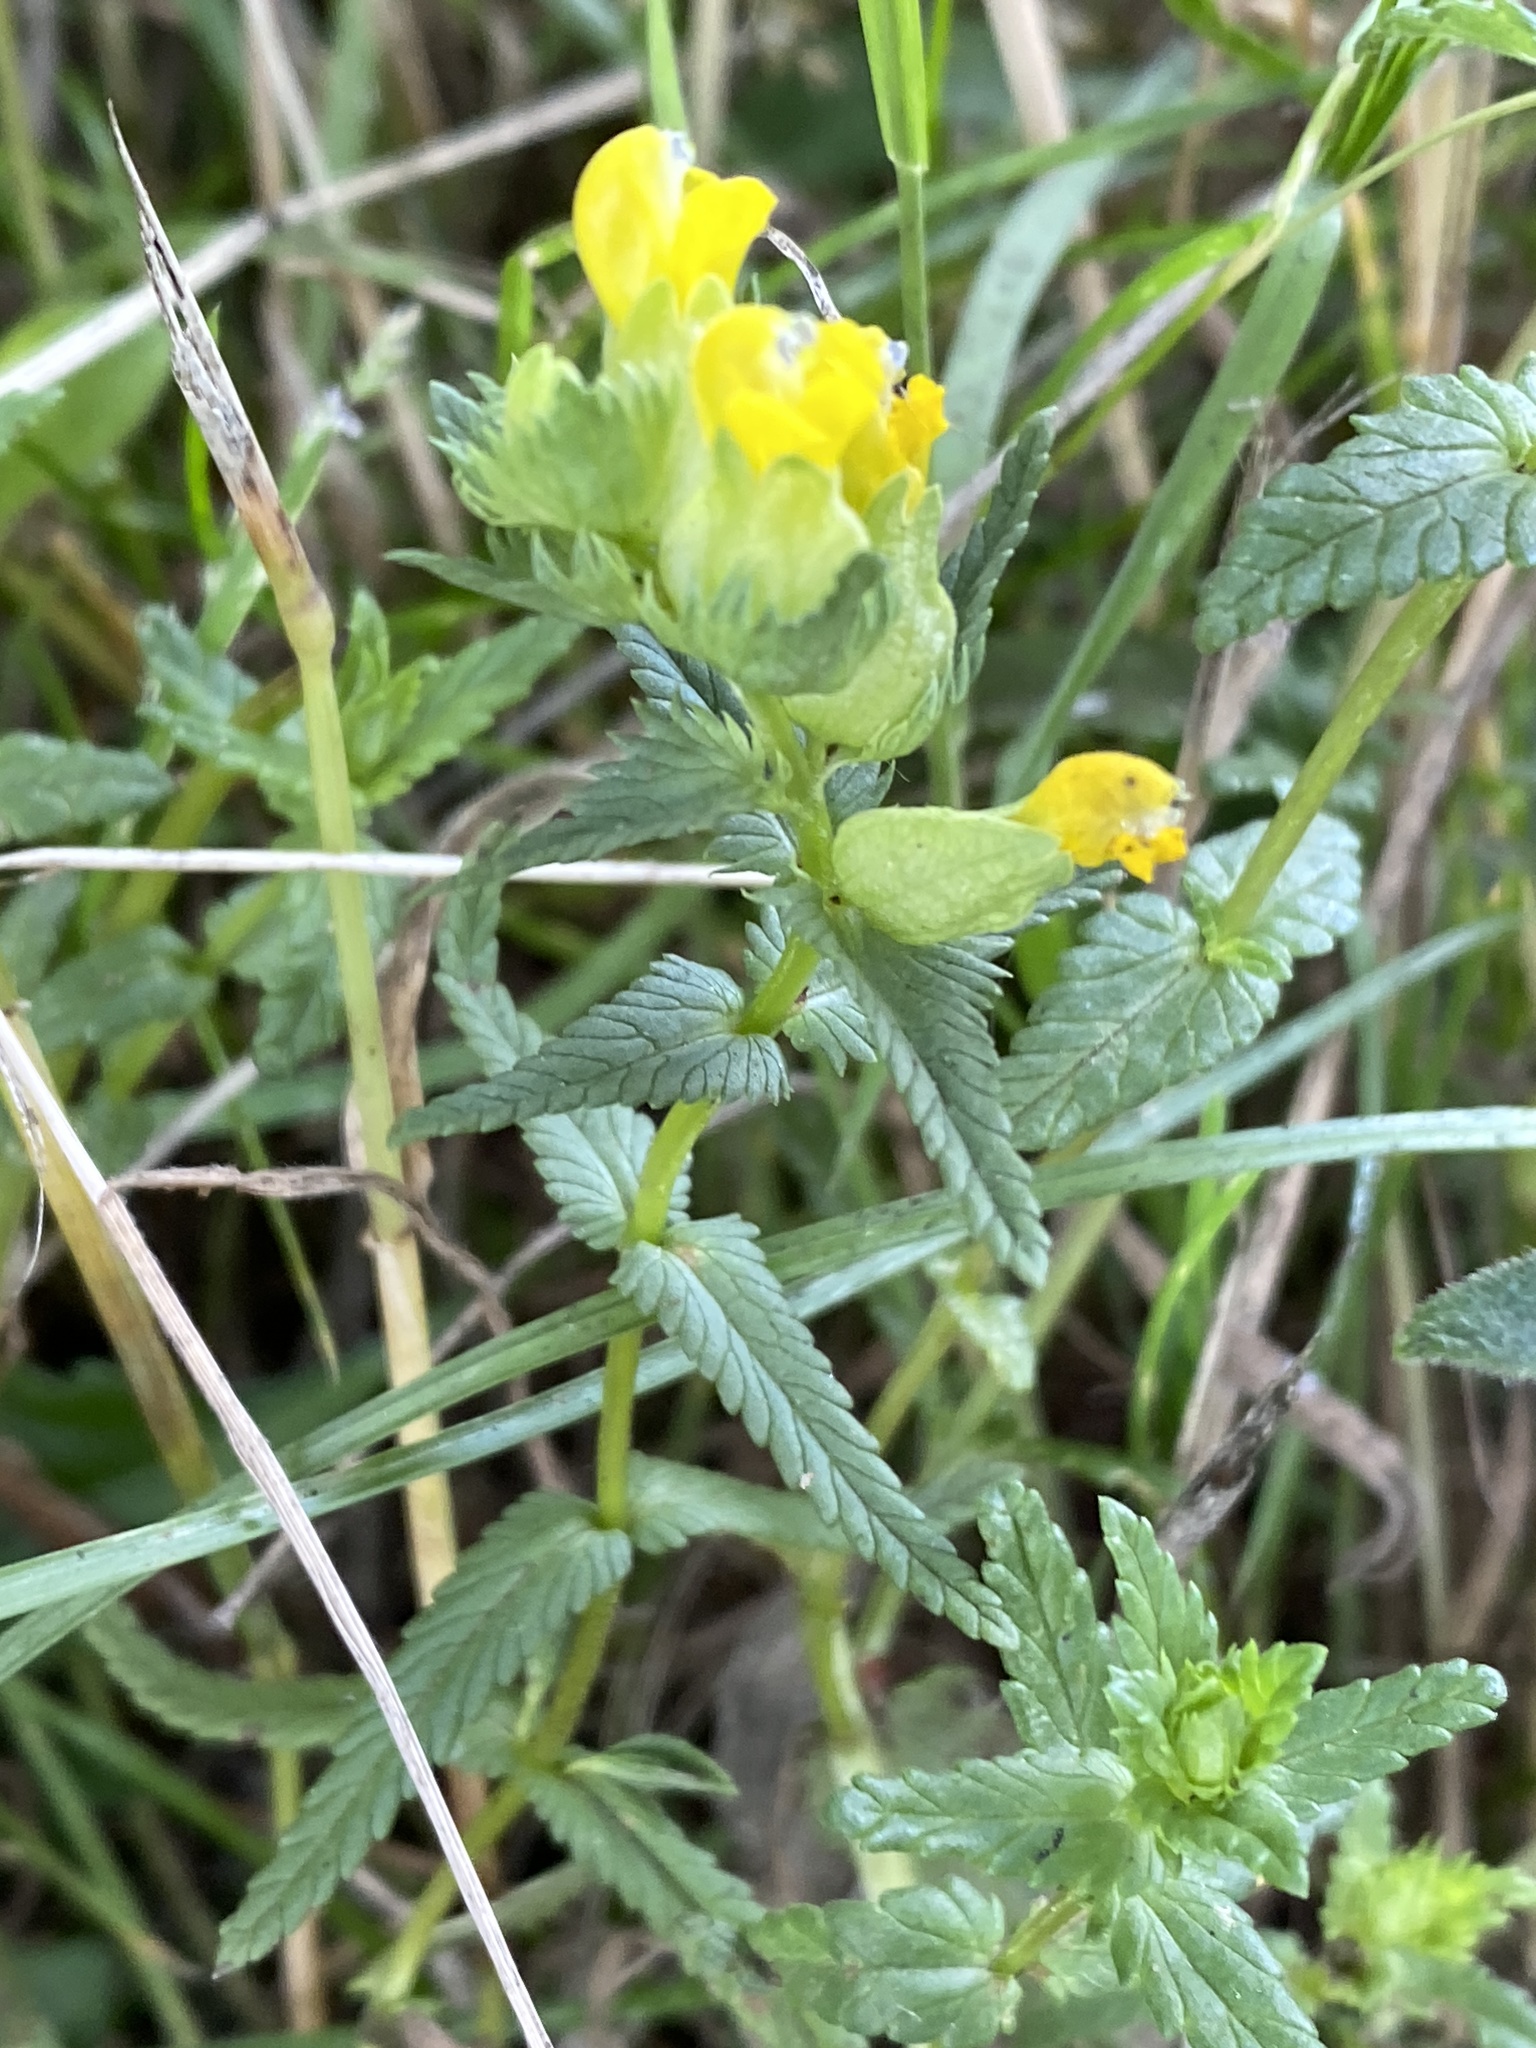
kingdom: Plantae
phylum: Tracheophyta
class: Magnoliopsida
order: Lamiales
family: Orobanchaceae
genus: Rhinanthus
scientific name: Rhinanthus minor
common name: Yellow-rattle
